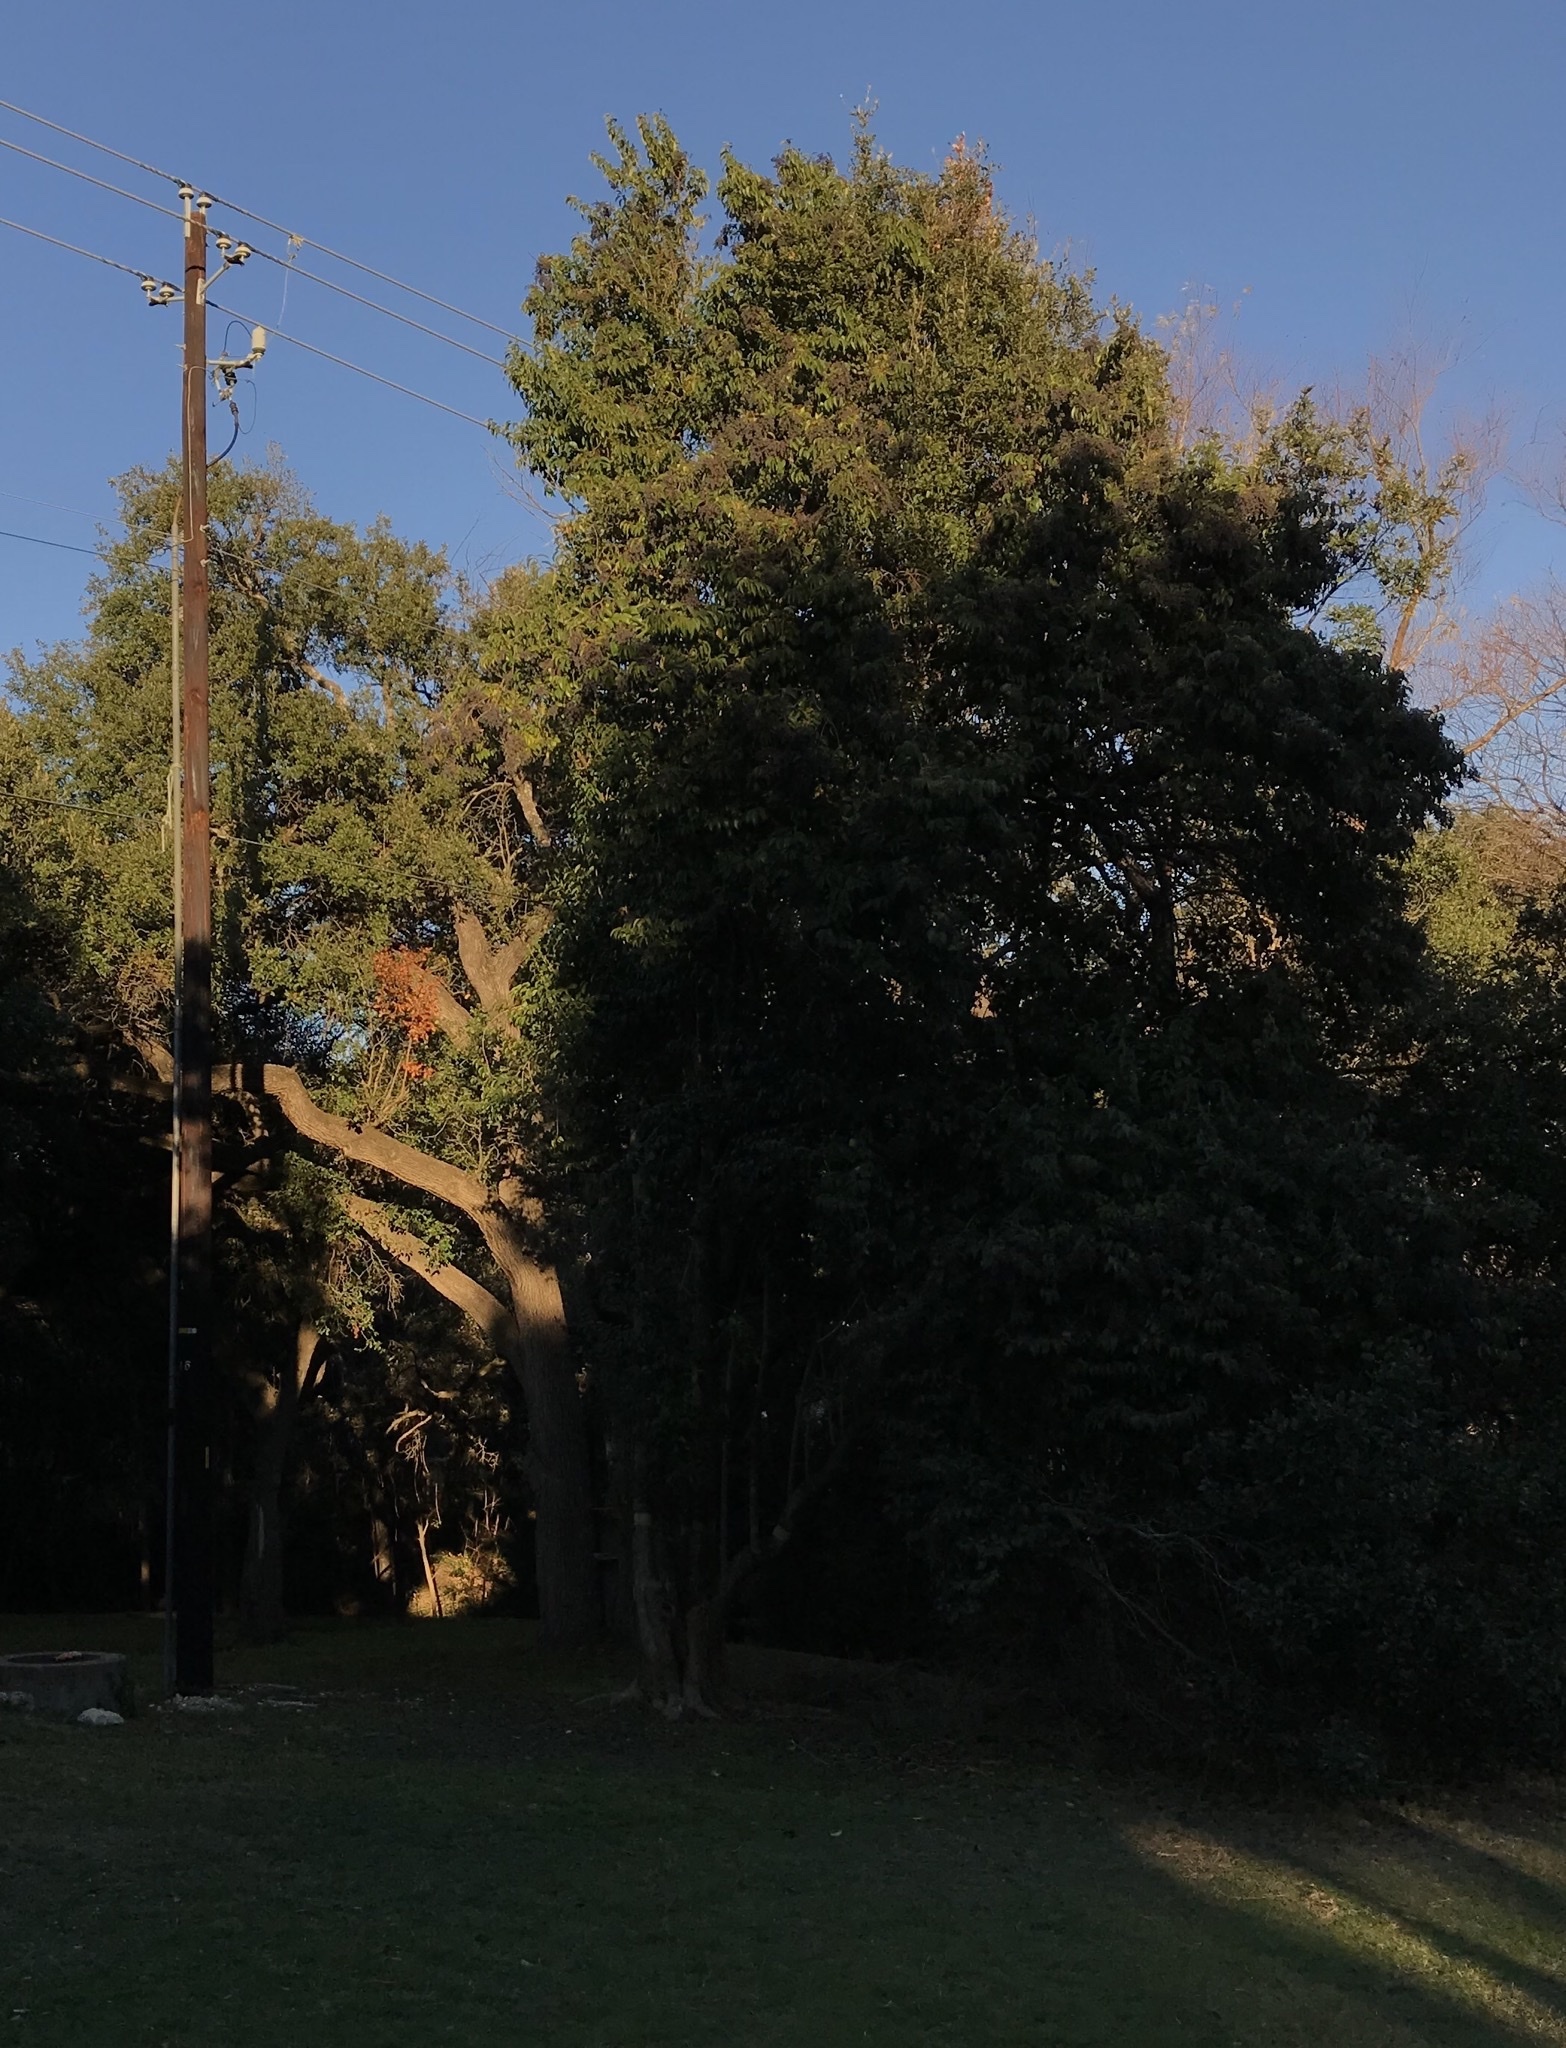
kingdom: Plantae
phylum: Tracheophyta
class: Magnoliopsida
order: Lamiales
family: Oleaceae
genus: Ligustrum
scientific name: Ligustrum lucidum
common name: Glossy privet
